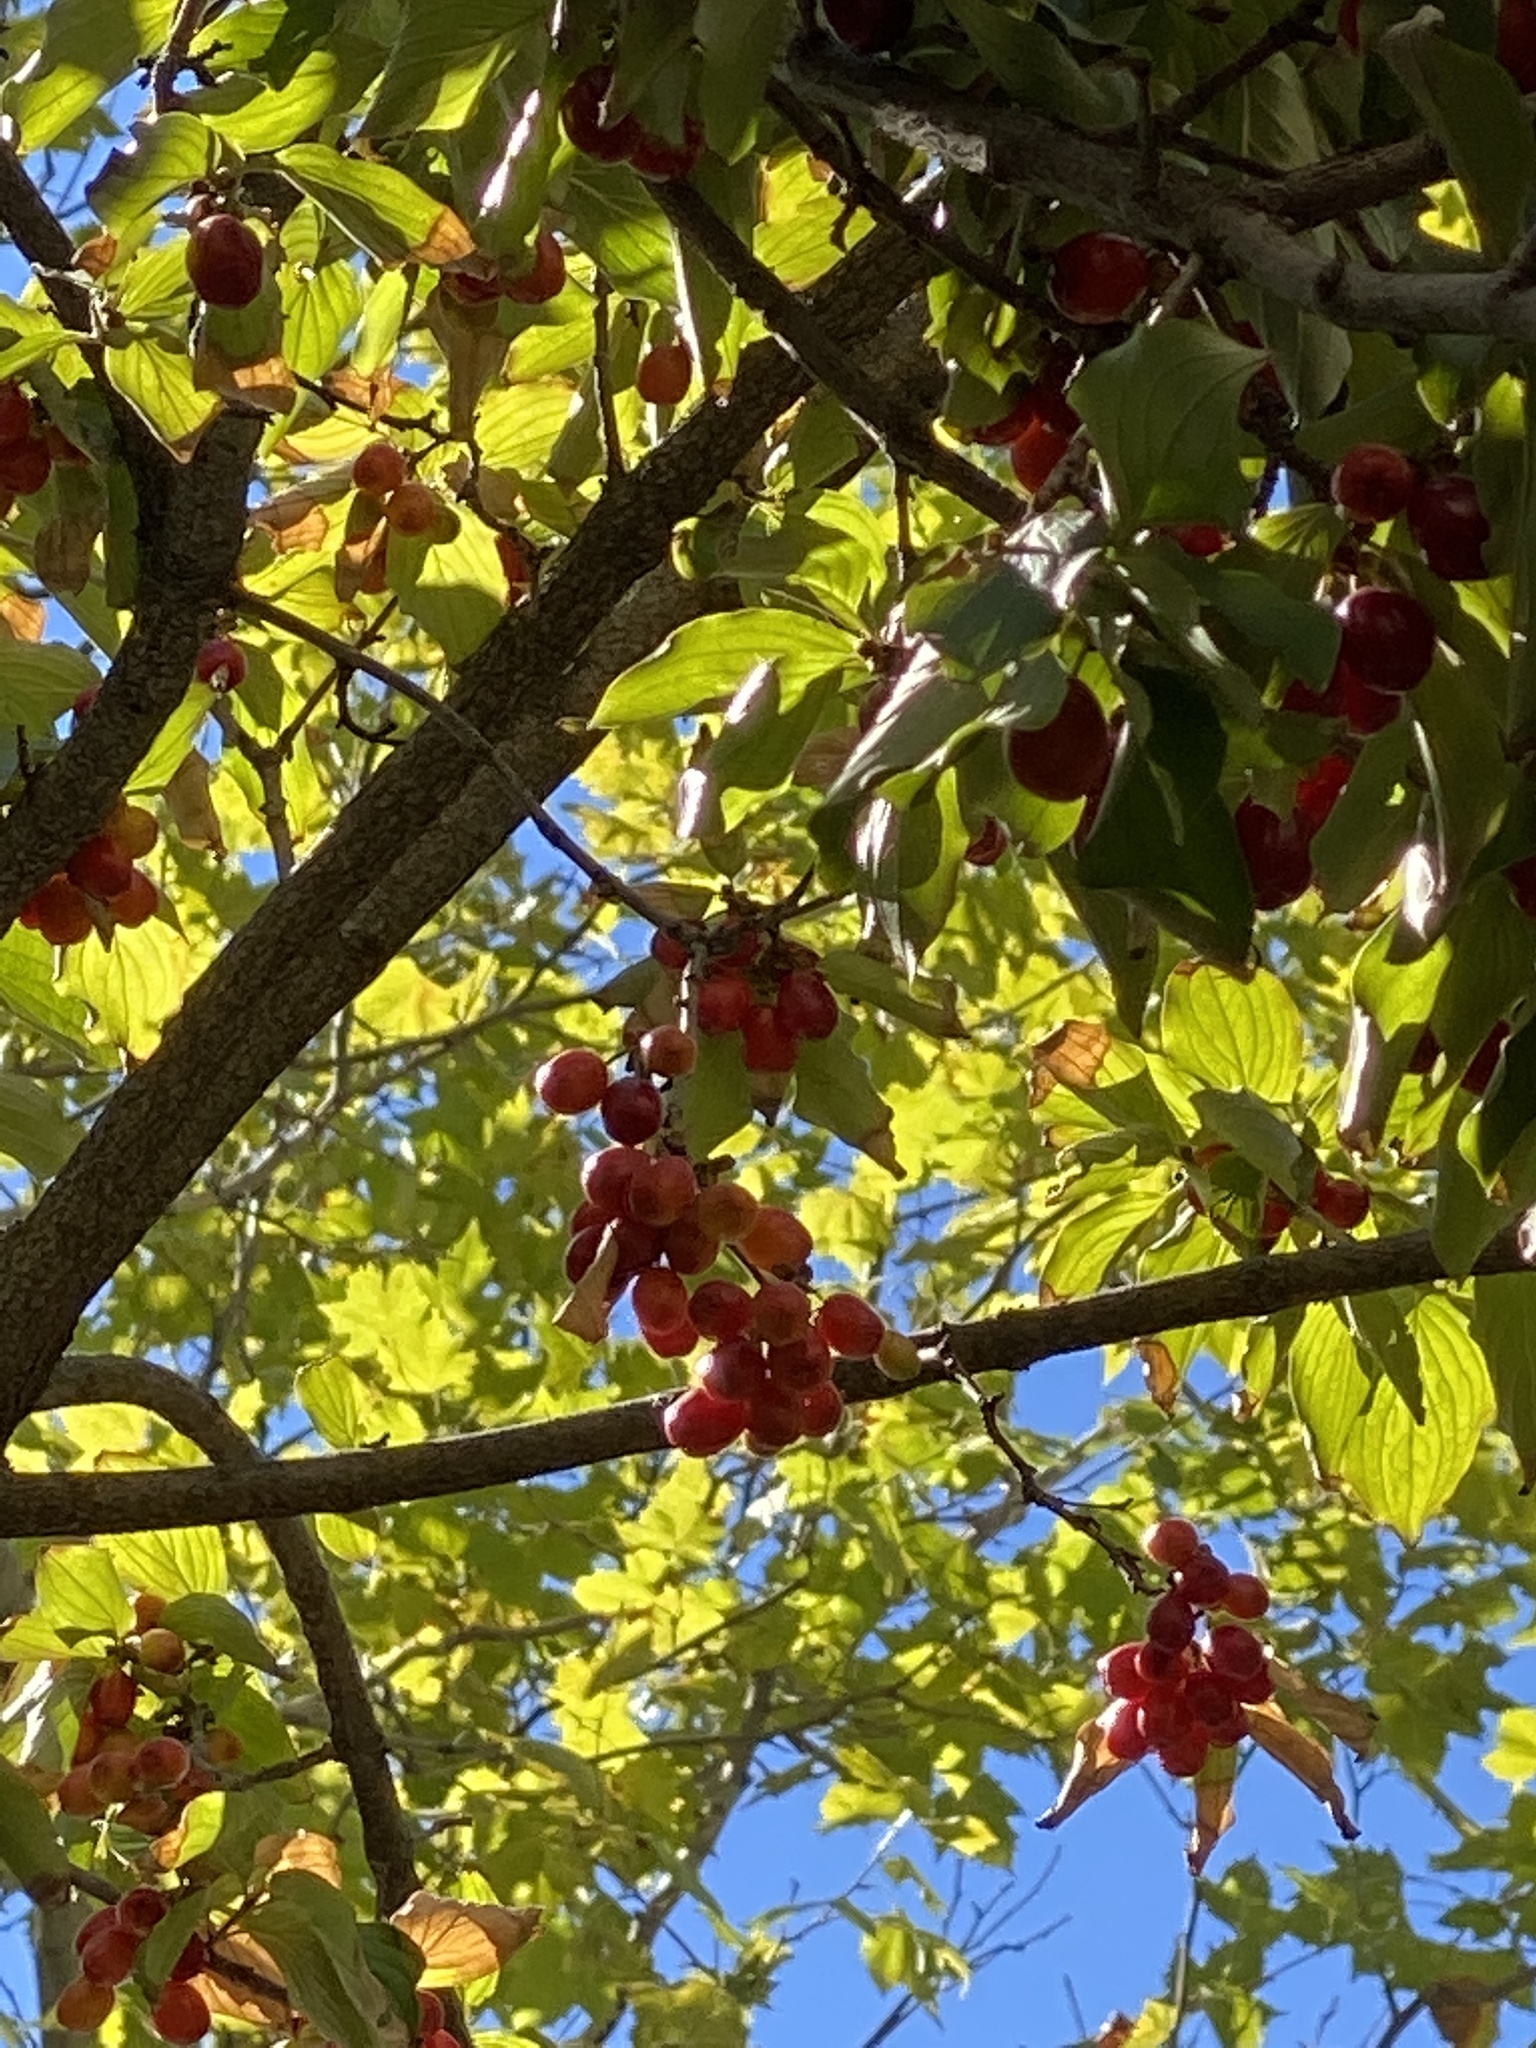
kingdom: Animalia
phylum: Chordata
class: Aves
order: Passeriformes
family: Passeridae
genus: Passer
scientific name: Passer domesticus
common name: House sparrow
